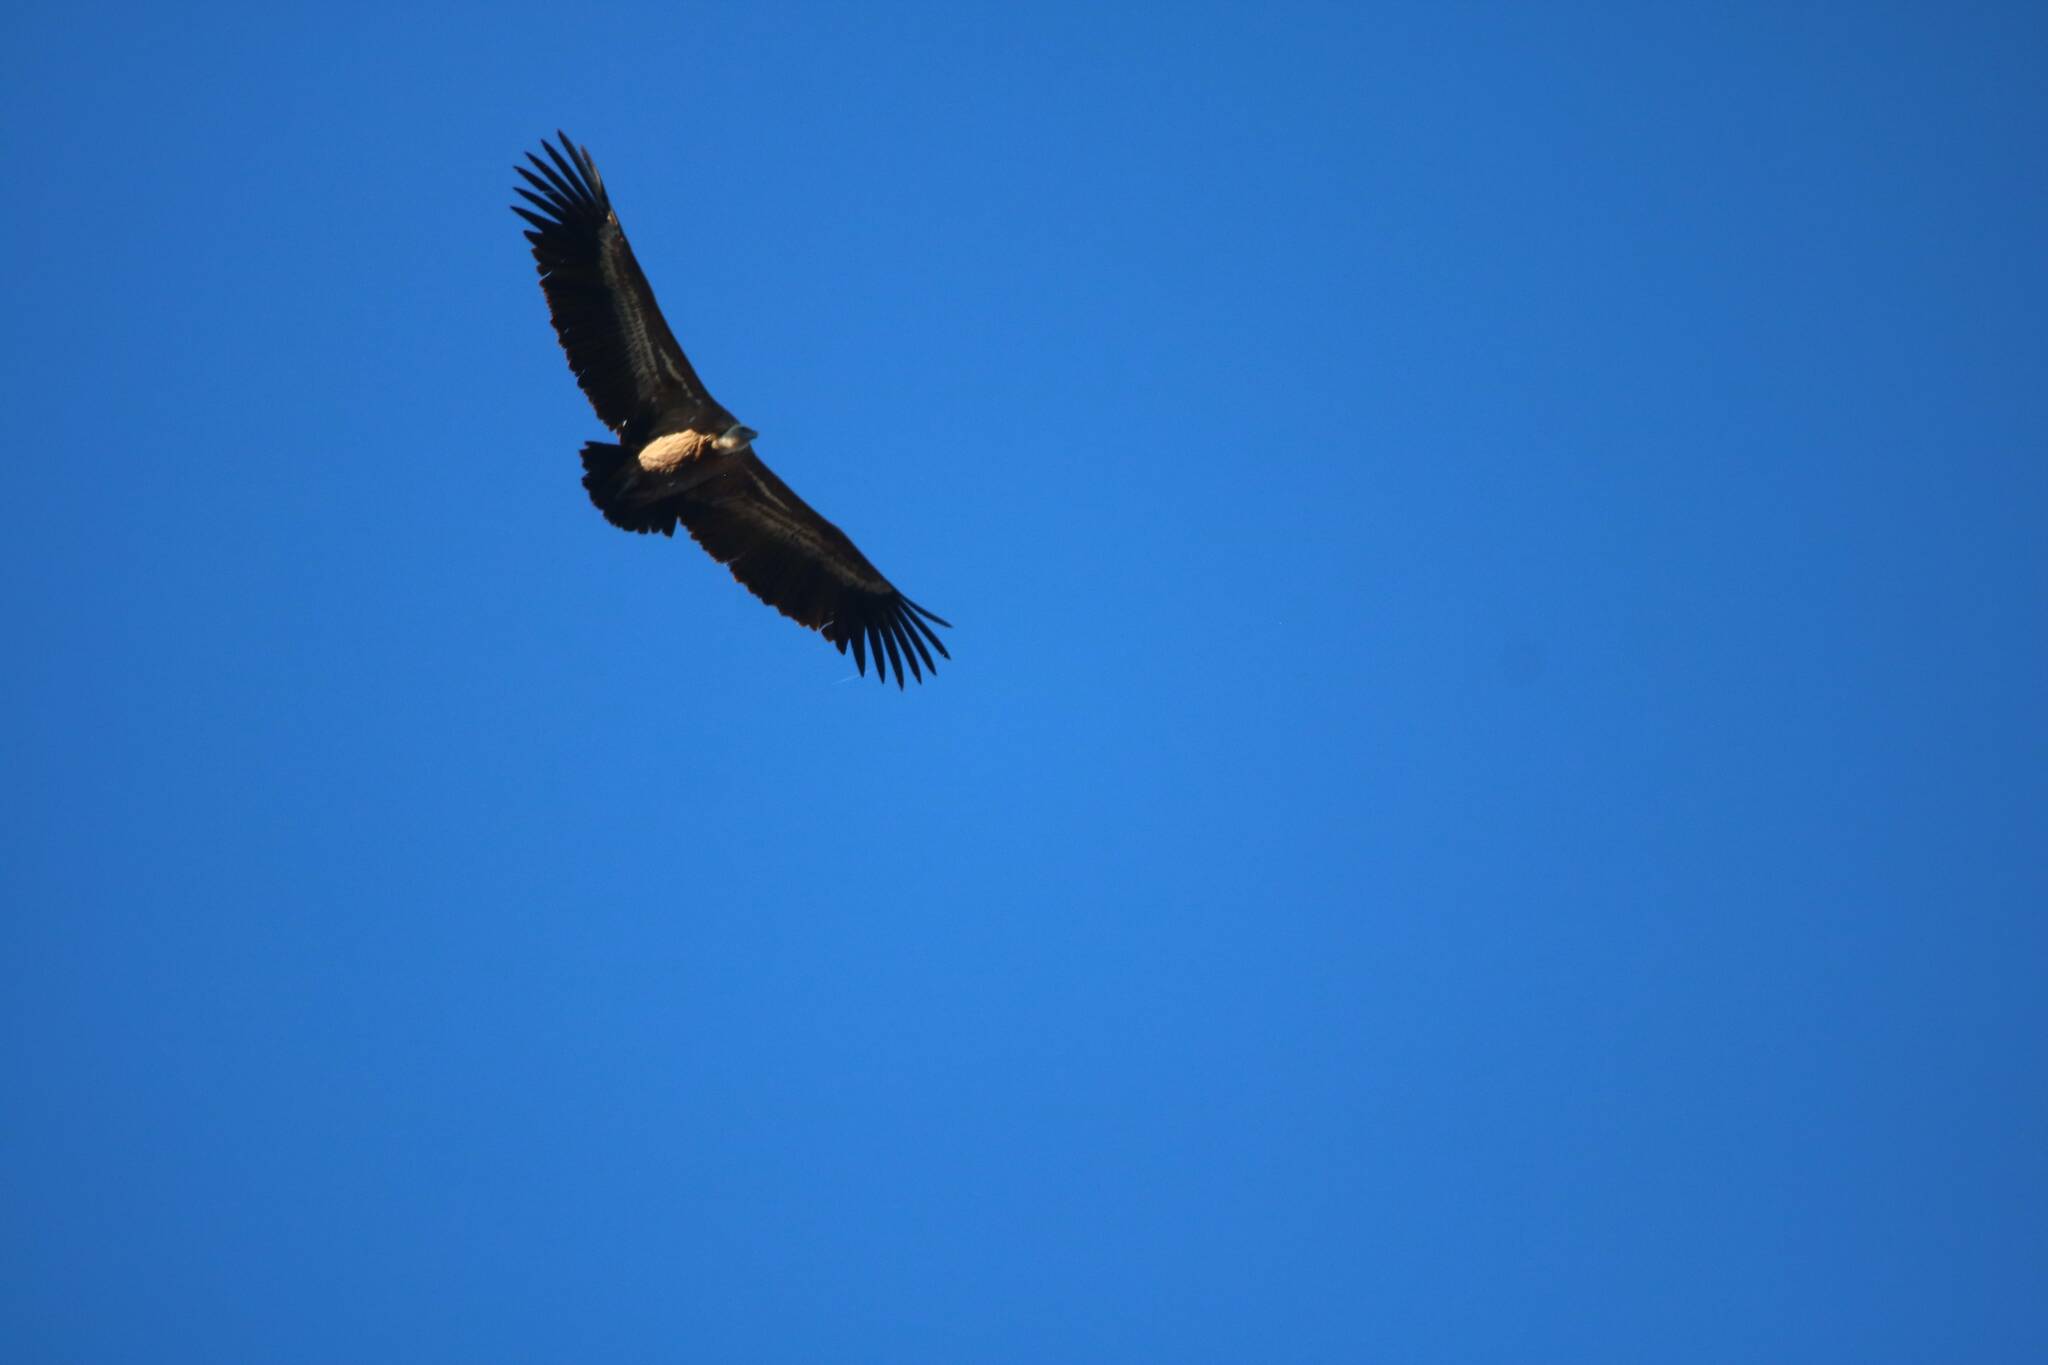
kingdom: Animalia
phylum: Chordata
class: Aves
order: Accipitriformes
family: Accipitridae
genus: Gyps
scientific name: Gyps fulvus
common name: Griffon vulture
